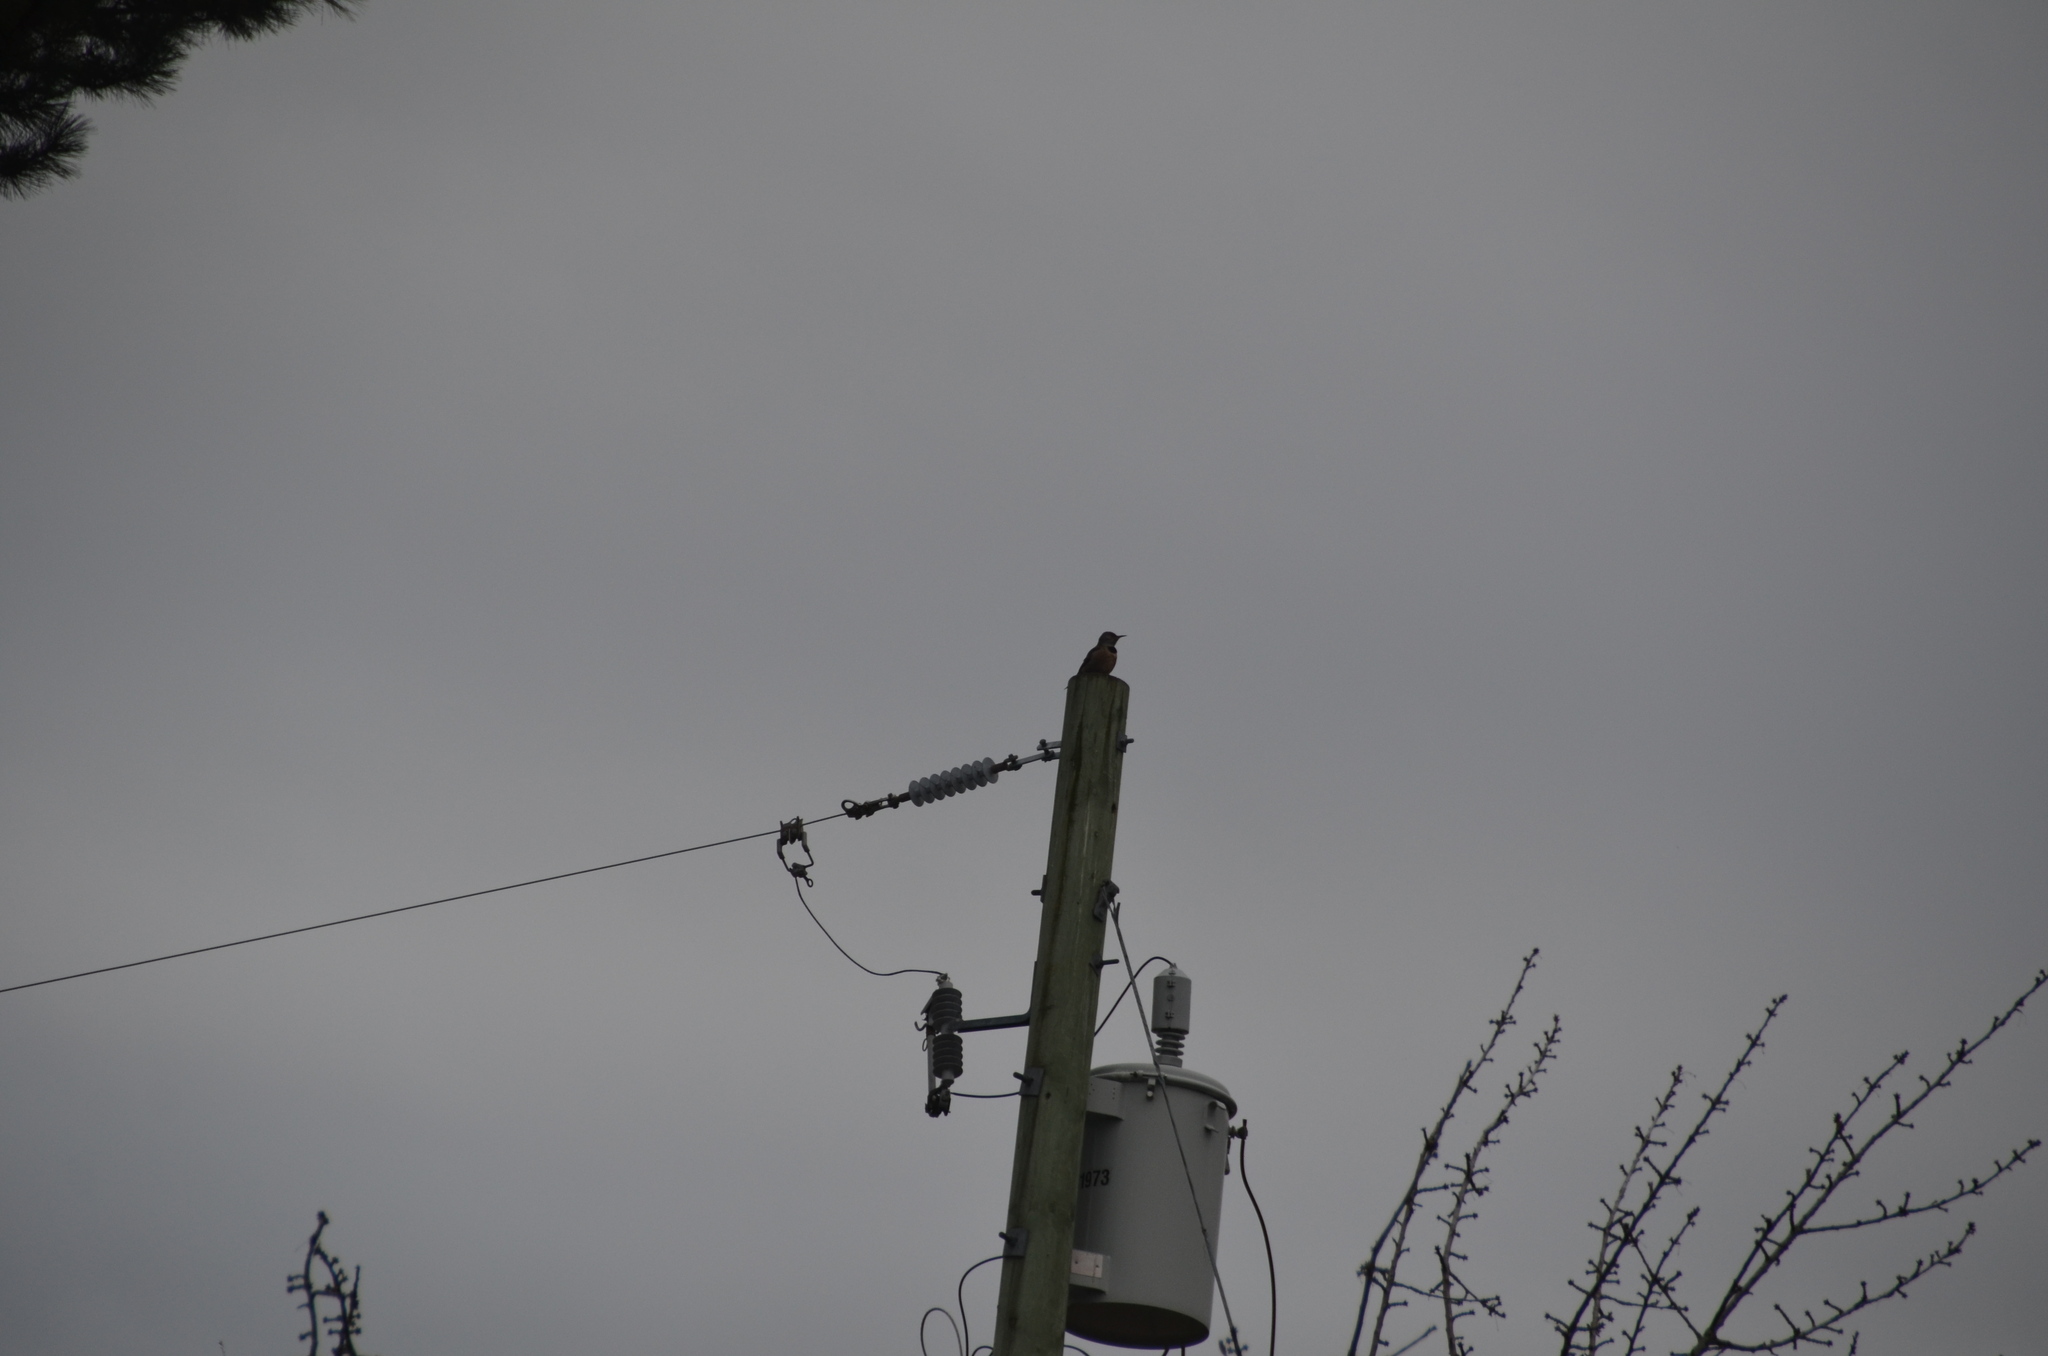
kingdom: Animalia
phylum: Chordata
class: Aves
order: Piciformes
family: Picidae
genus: Colaptes
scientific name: Colaptes auratus
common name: Northern flicker
